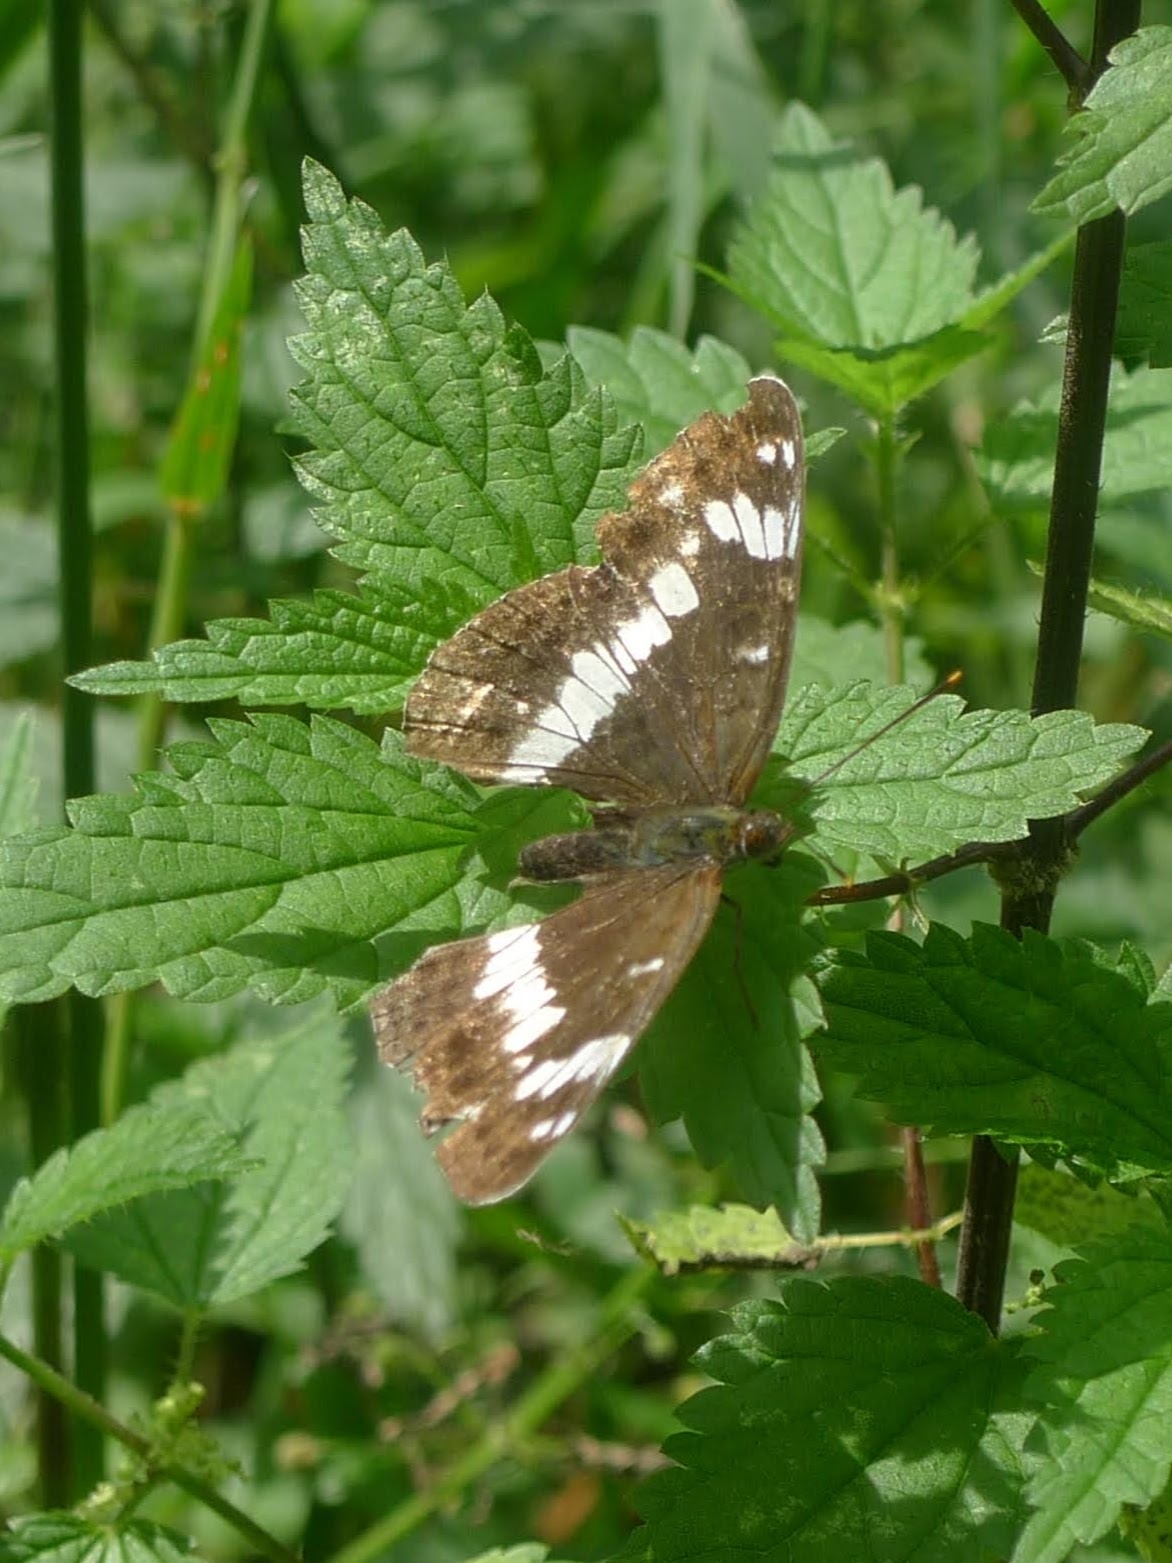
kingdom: Animalia
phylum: Arthropoda
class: Insecta
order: Lepidoptera
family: Nymphalidae
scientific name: Nymphalidae
